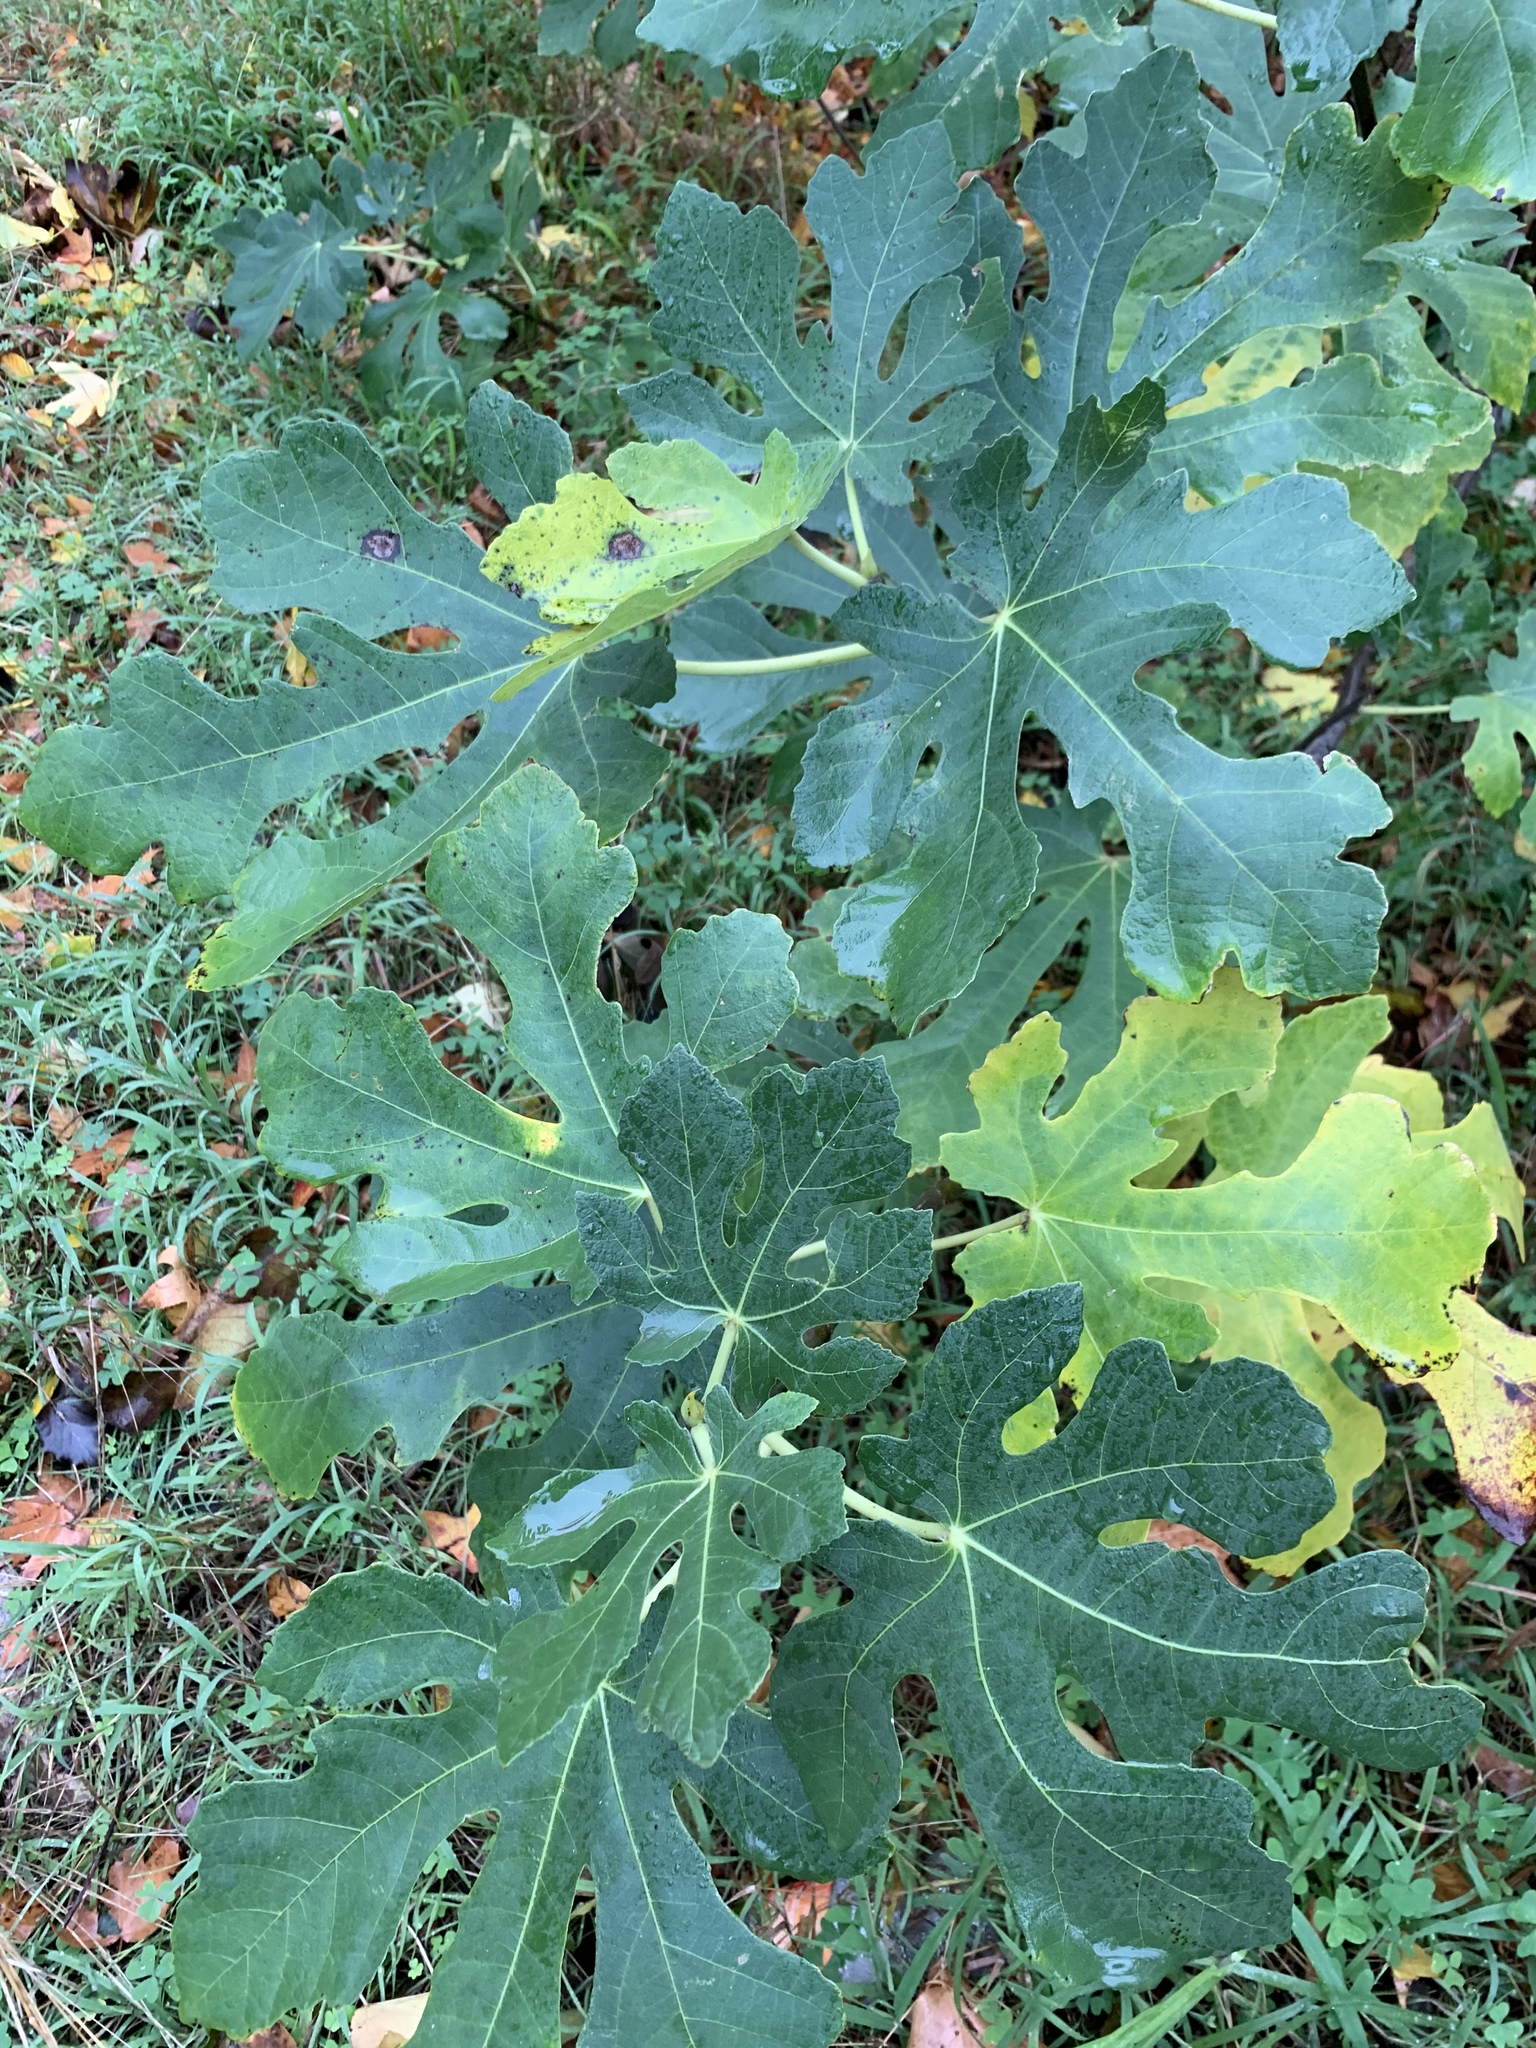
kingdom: Plantae
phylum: Tracheophyta
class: Magnoliopsida
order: Rosales
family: Moraceae
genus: Ficus
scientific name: Ficus carica
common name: Fig
